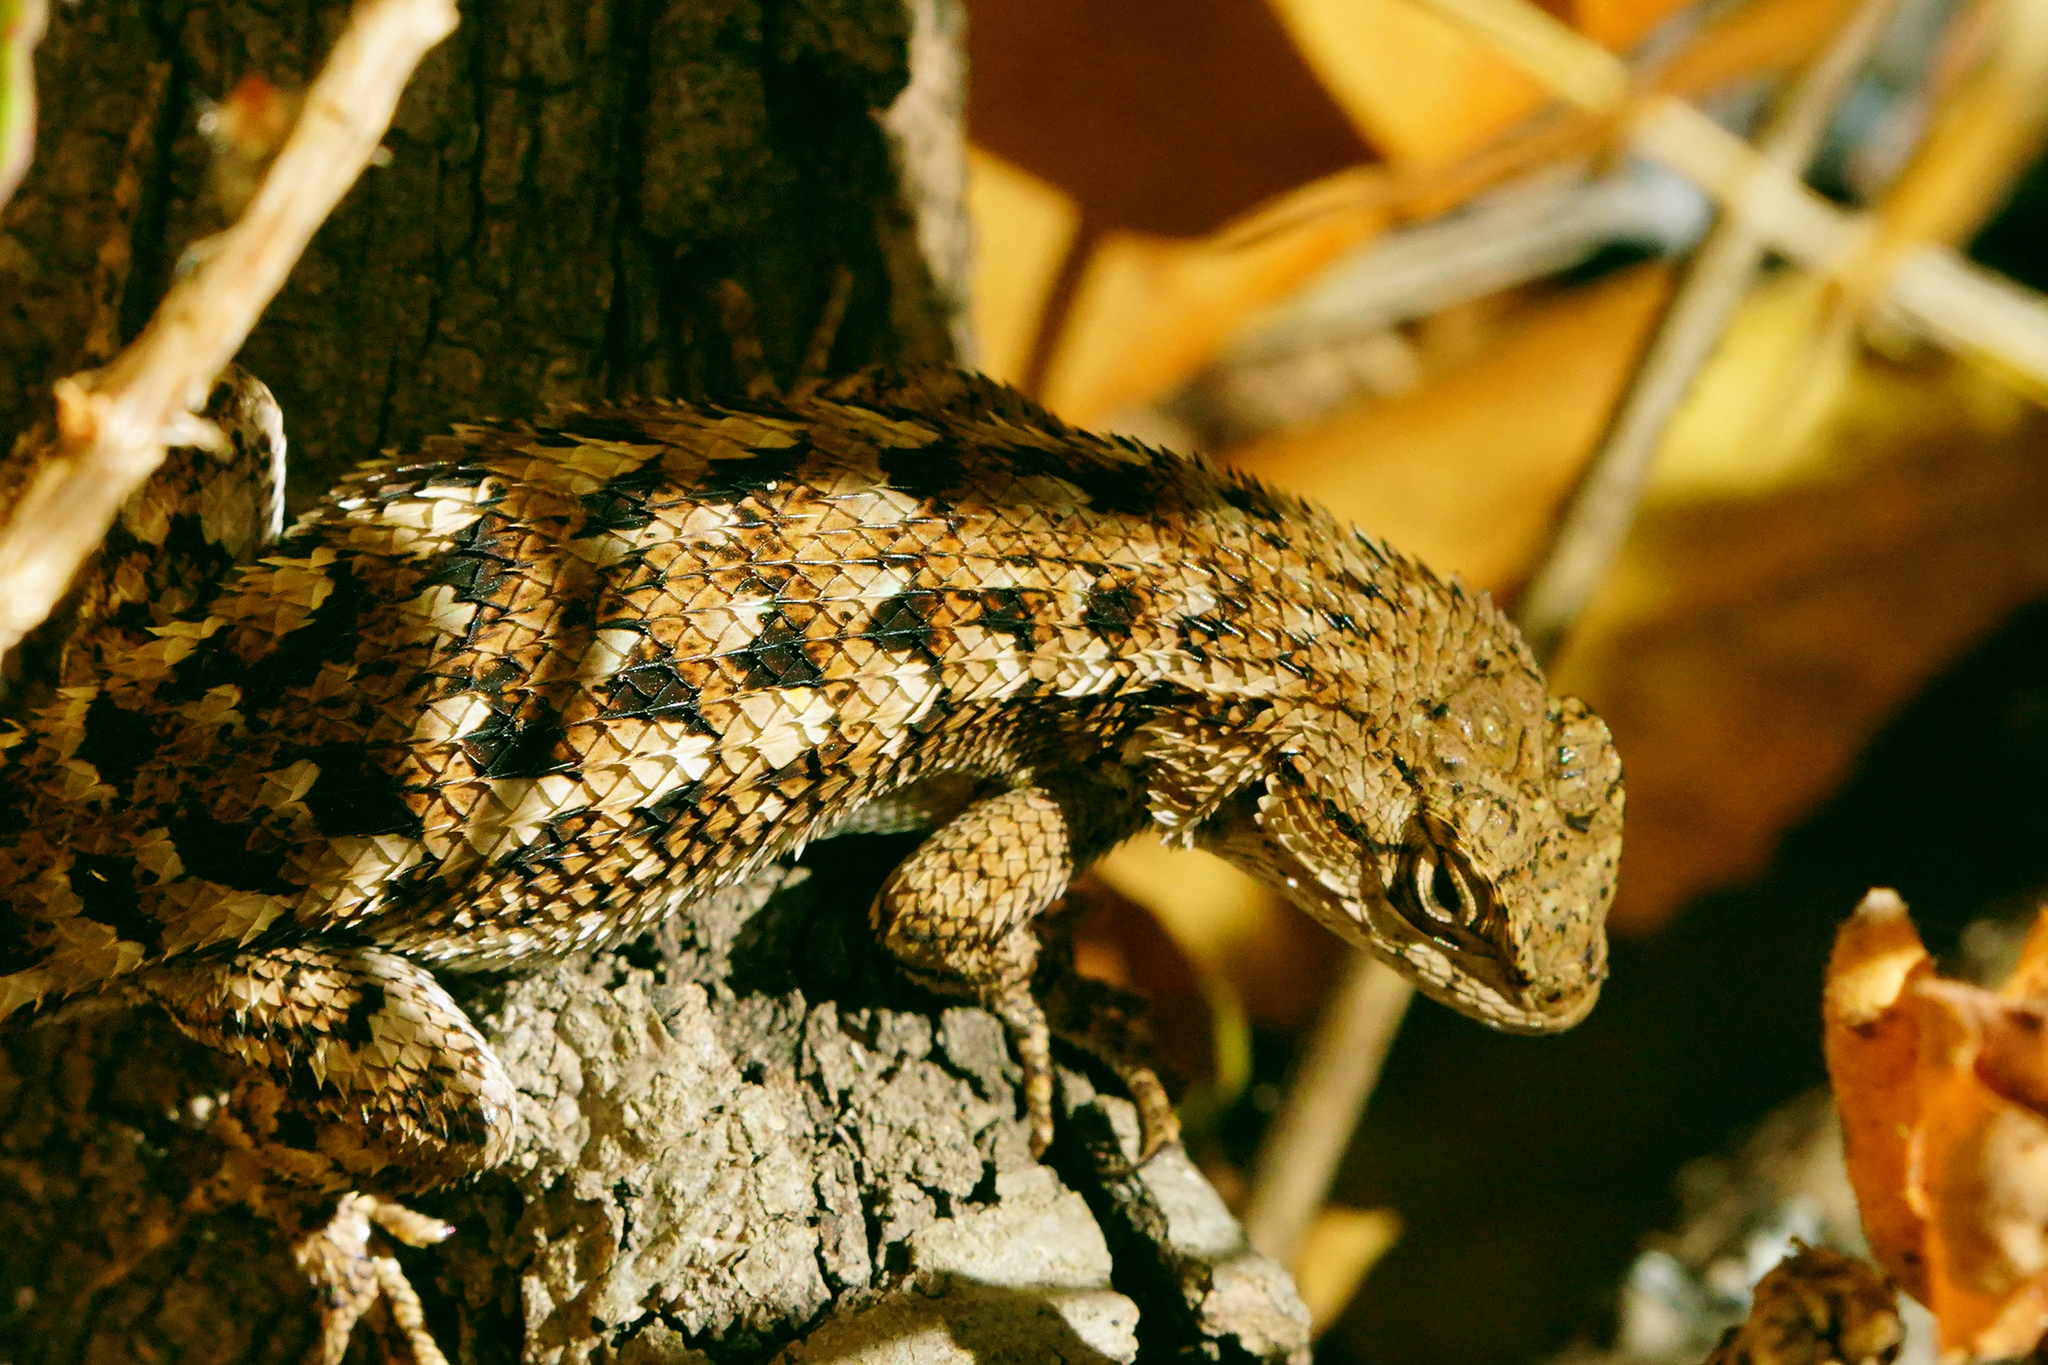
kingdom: Animalia
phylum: Chordata
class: Squamata
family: Phrynosomatidae
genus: Sceloporus
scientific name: Sceloporus occidentalis
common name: Western fence lizard
